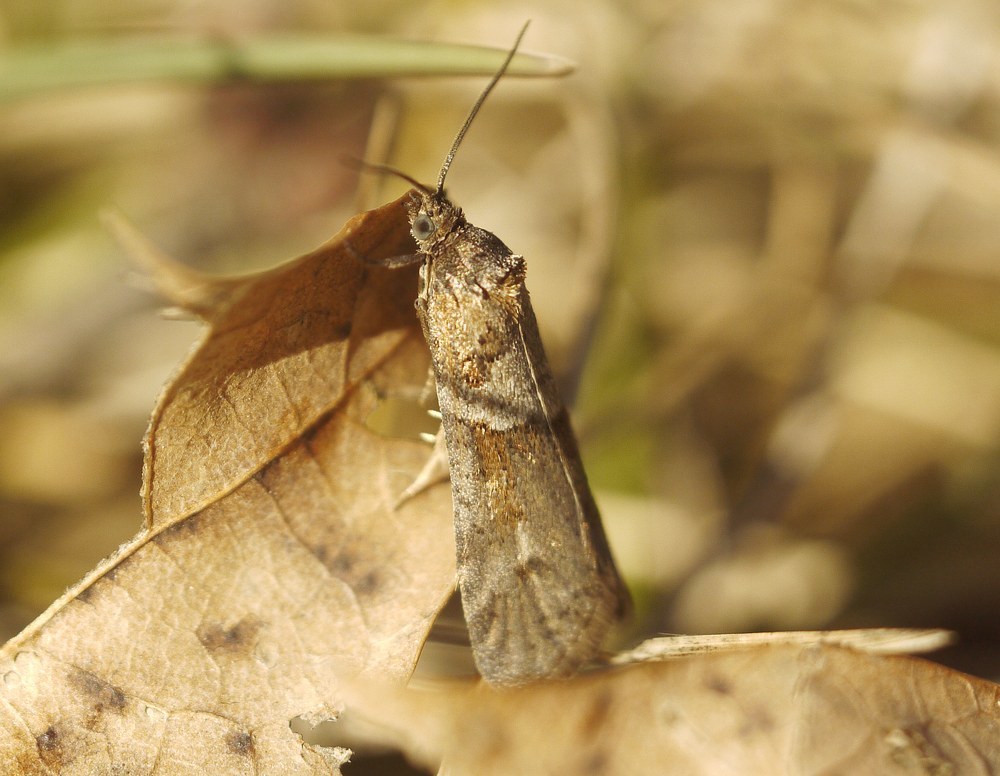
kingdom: Animalia
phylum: Arthropoda
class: Insecta
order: Lepidoptera
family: Tortricidae
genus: Tortricodes
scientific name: Tortricodes alternella
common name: Winter shade
